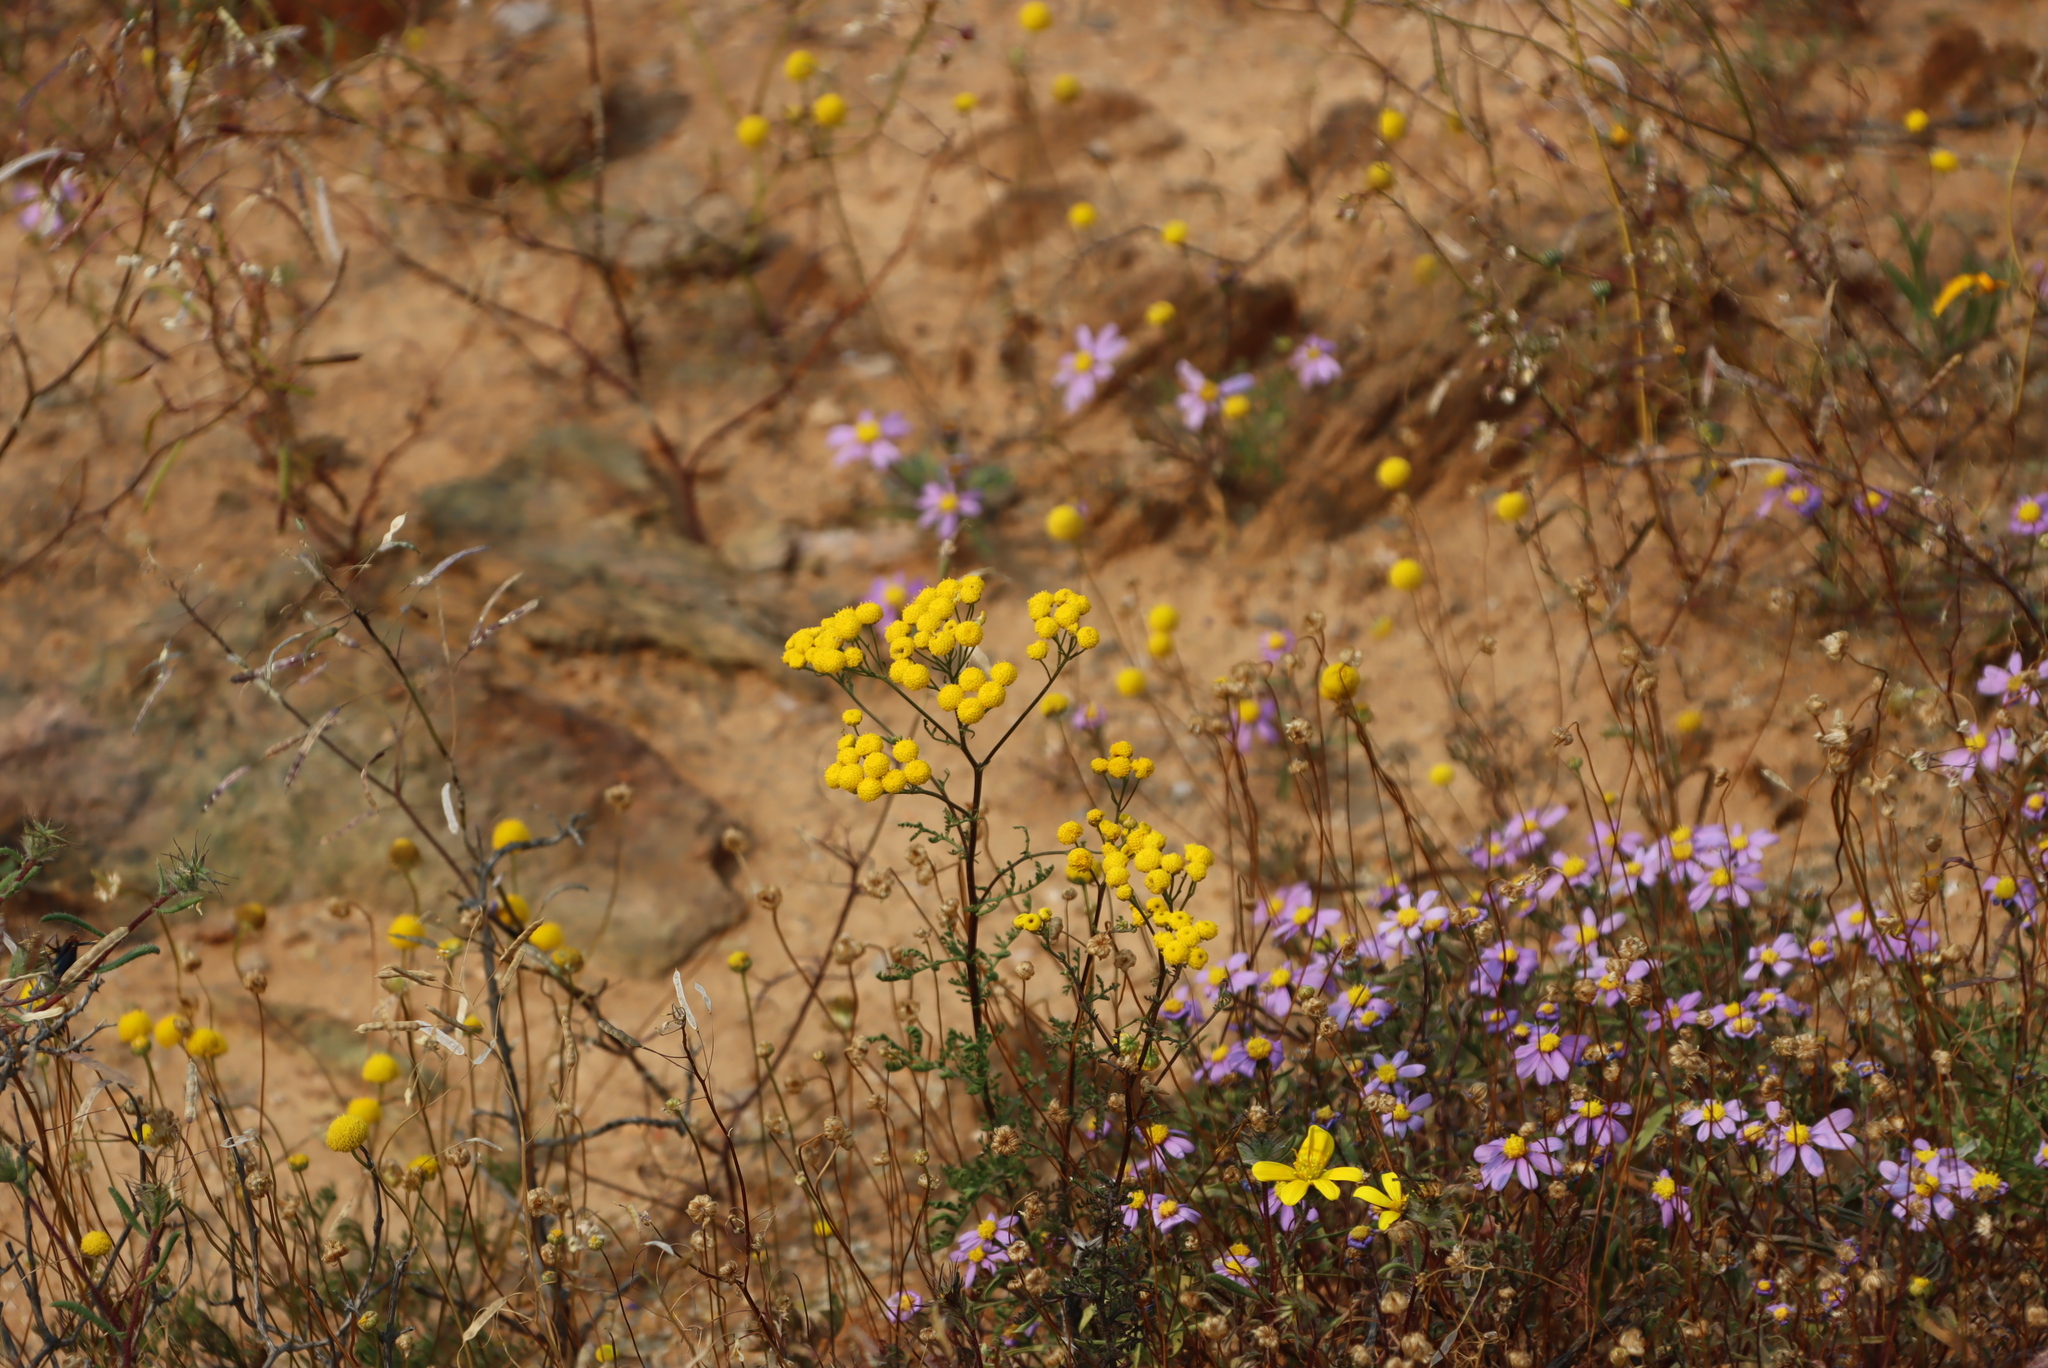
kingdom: Plantae
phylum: Tracheophyta
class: Magnoliopsida
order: Brassicales
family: Brassicaceae
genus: Heliophila
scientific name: Heliophila variabilis
